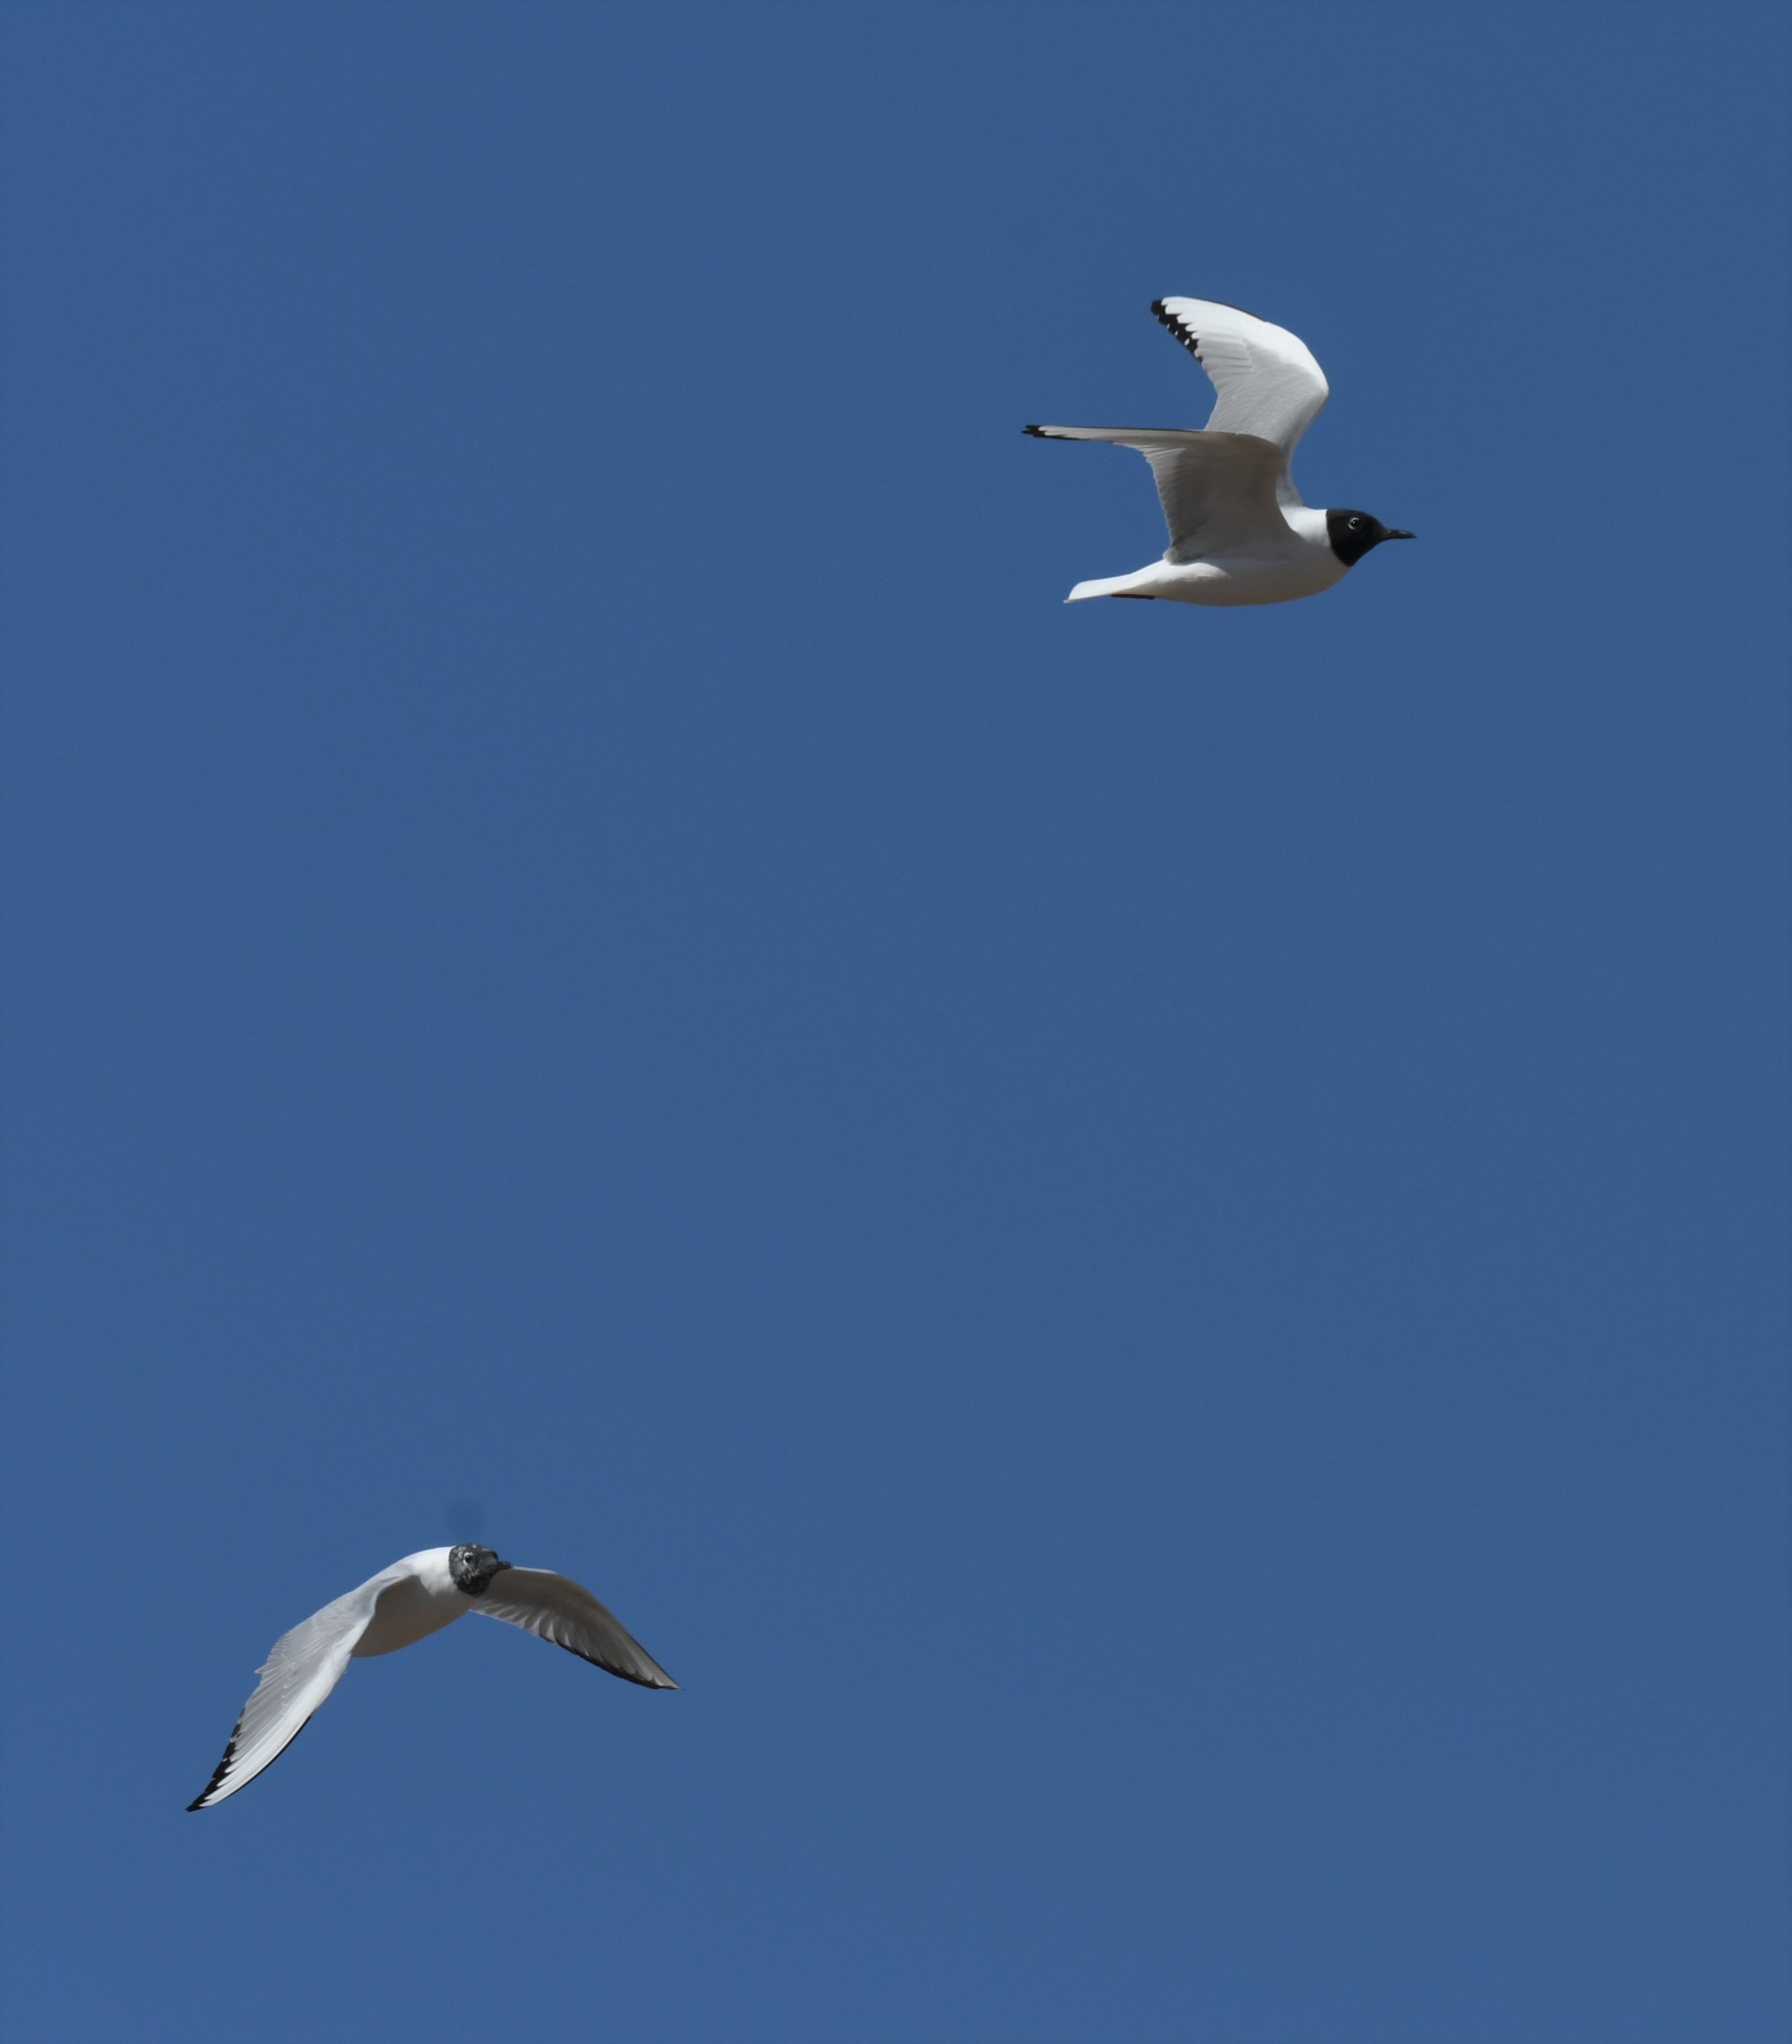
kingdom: Animalia
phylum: Chordata
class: Aves
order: Charadriiformes
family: Laridae
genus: Chroicocephalus
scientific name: Chroicocephalus philadelphia
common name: Bonaparte's gull
